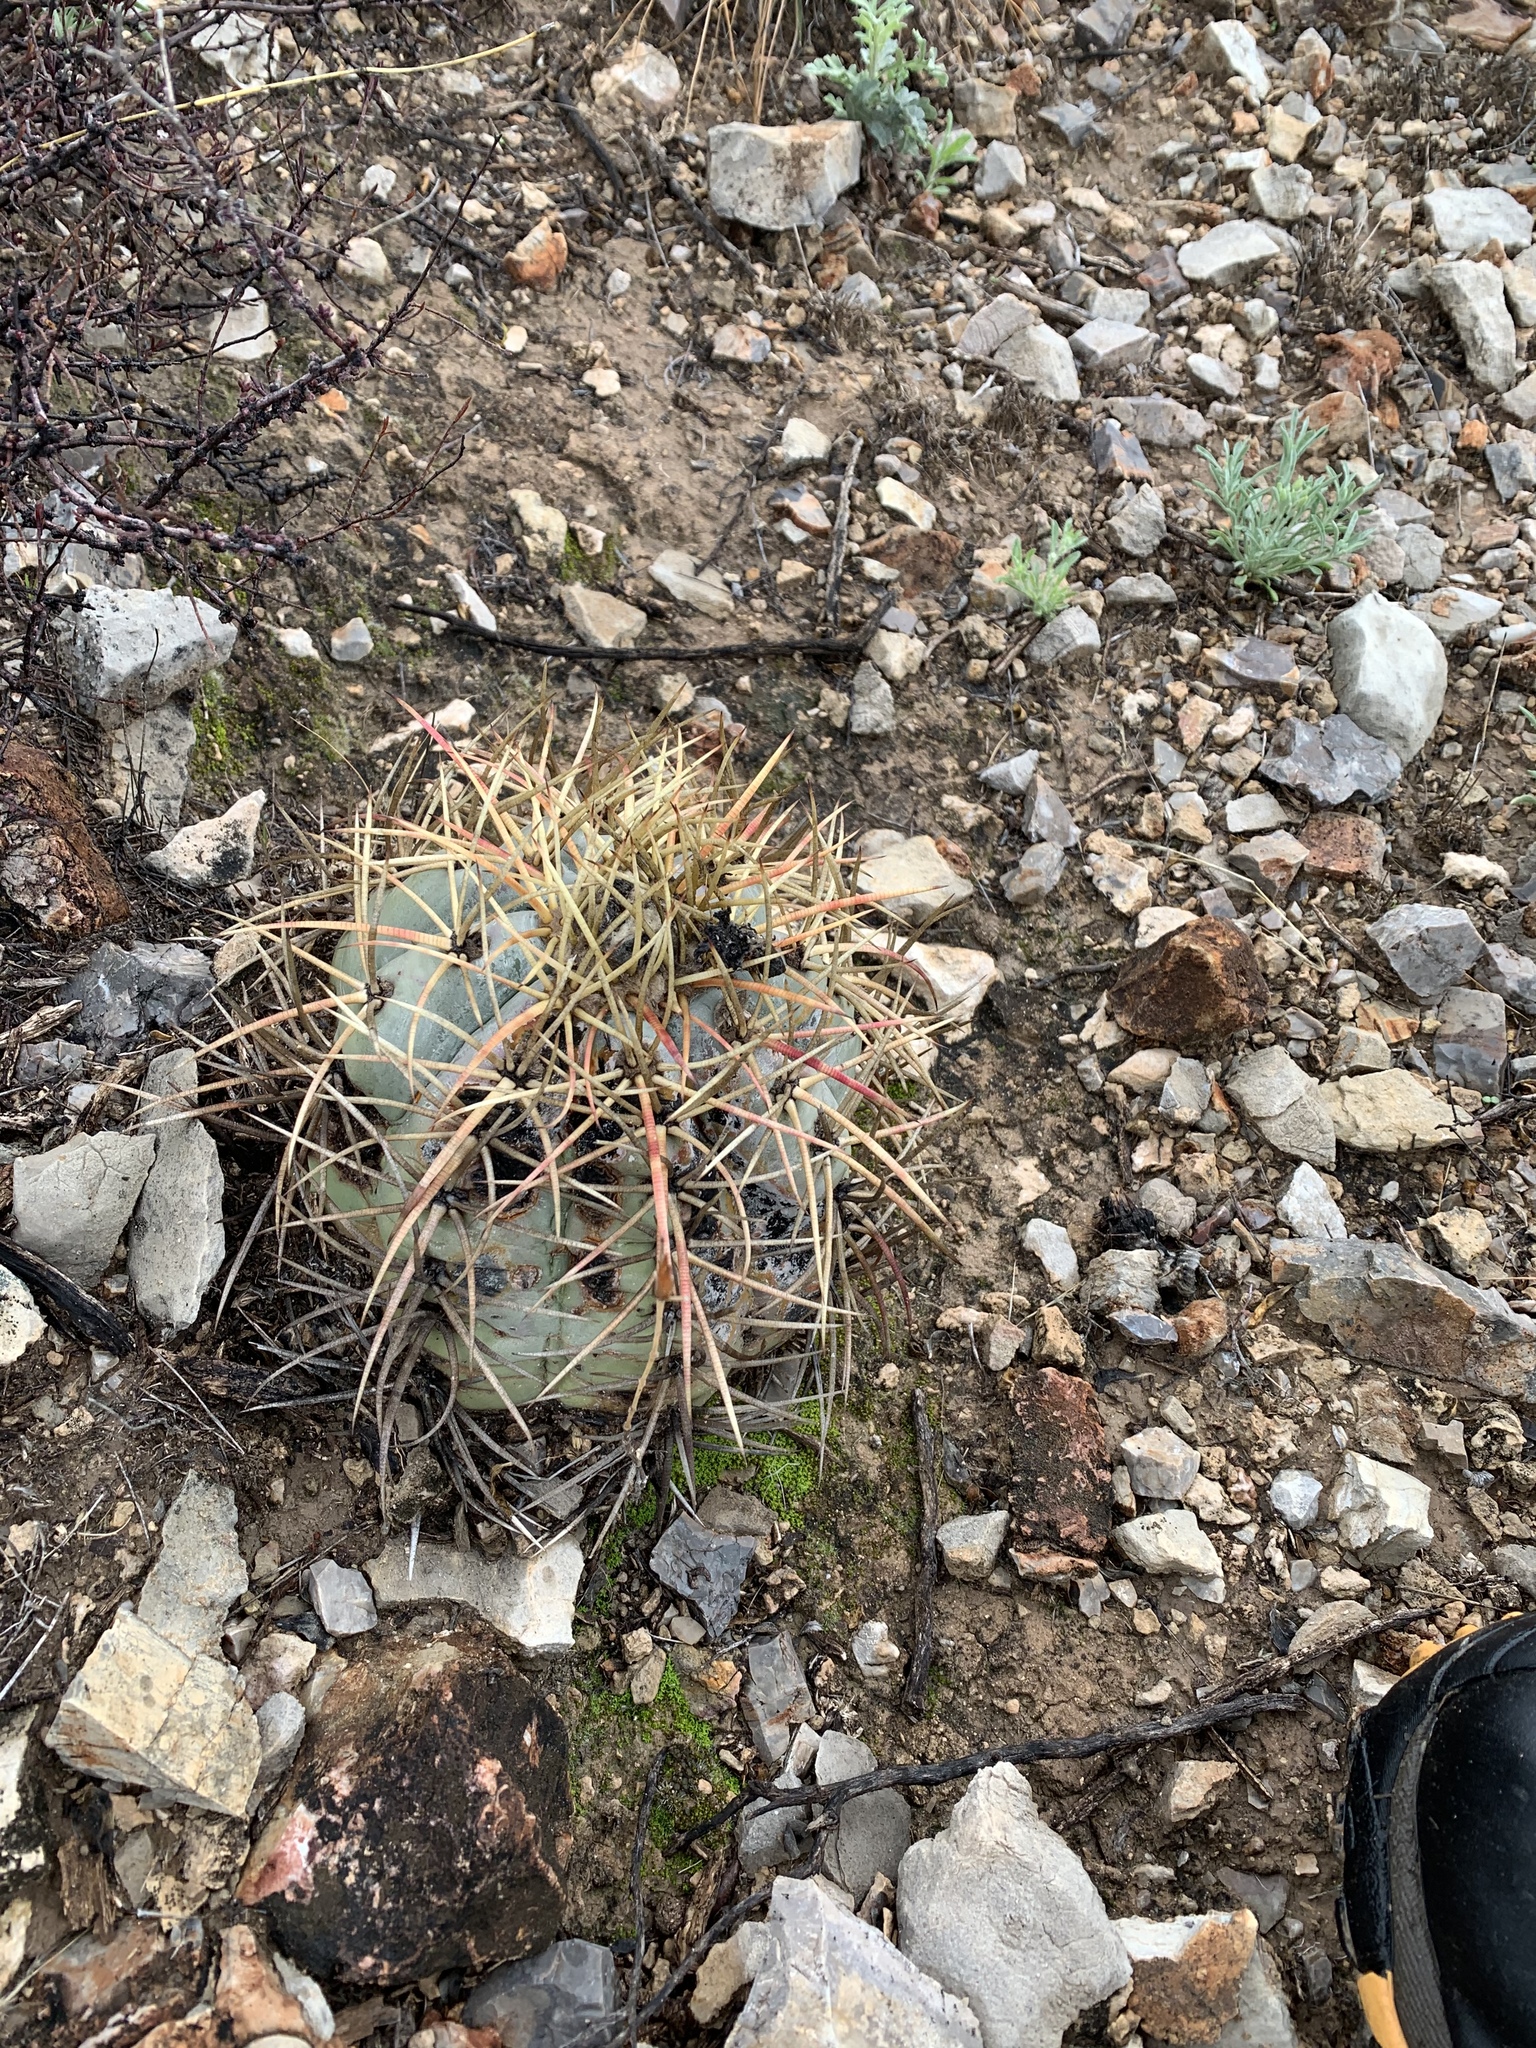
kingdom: Plantae
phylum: Tracheophyta
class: Magnoliopsida
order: Caryophyllales
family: Cactaceae
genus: Echinocactus
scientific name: Echinocactus horizonthalonius
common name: Devilshead
